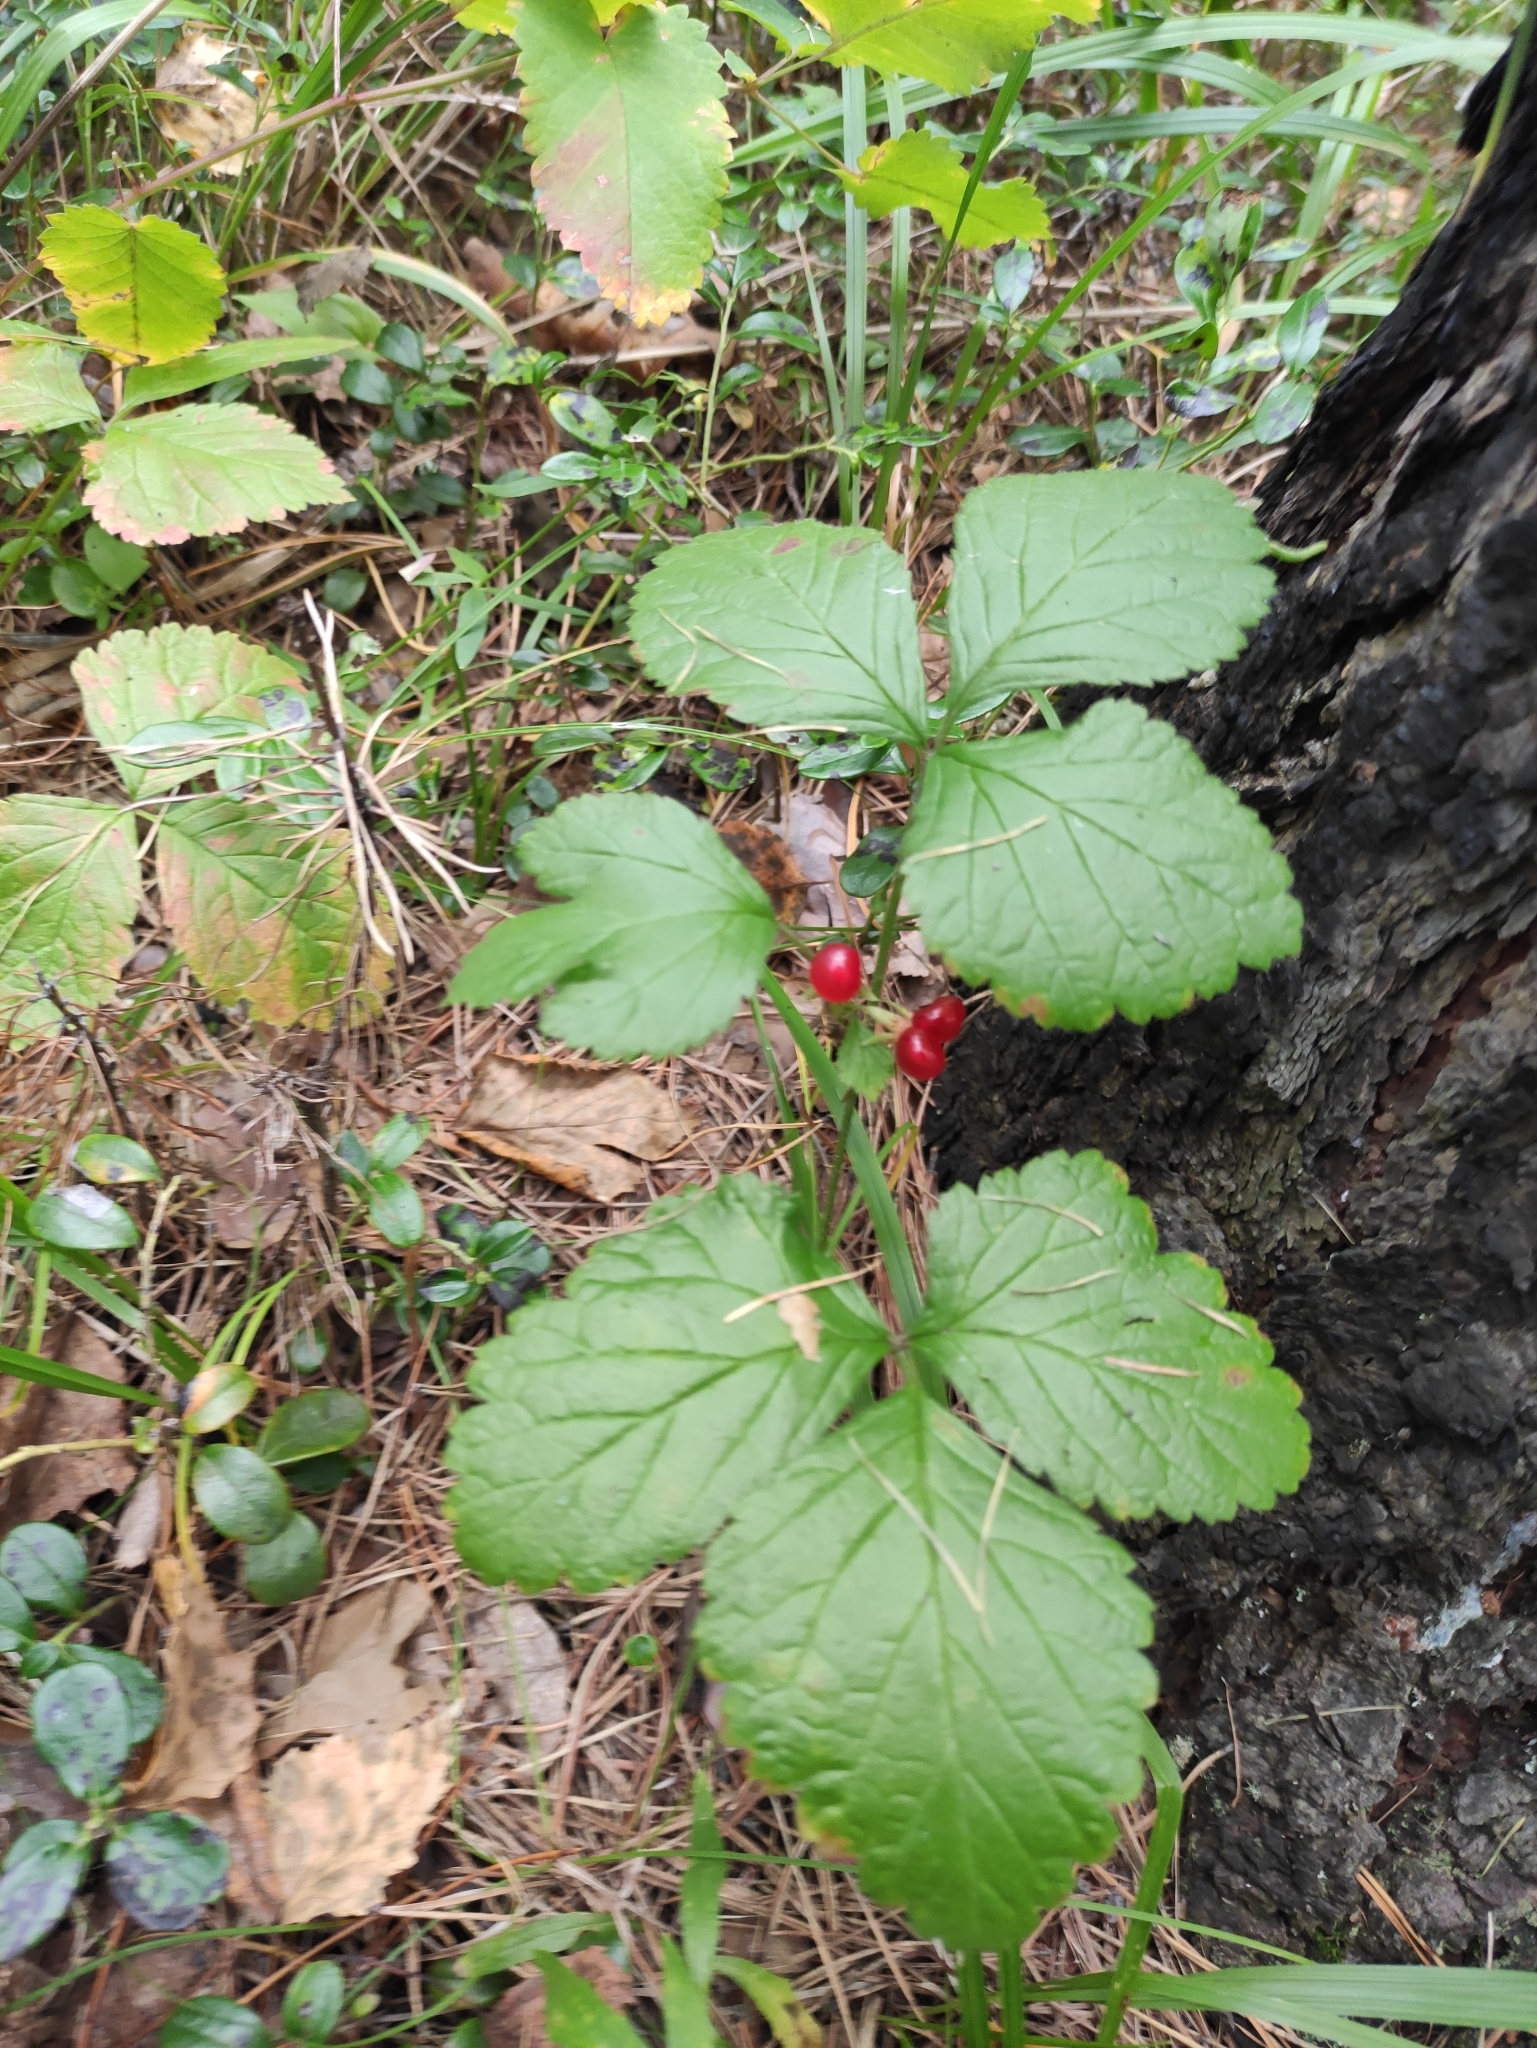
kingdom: Plantae
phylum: Tracheophyta
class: Magnoliopsida
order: Rosales
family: Rosaceae
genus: Rubus
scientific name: Rubus saxatilis
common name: Stone bramble
